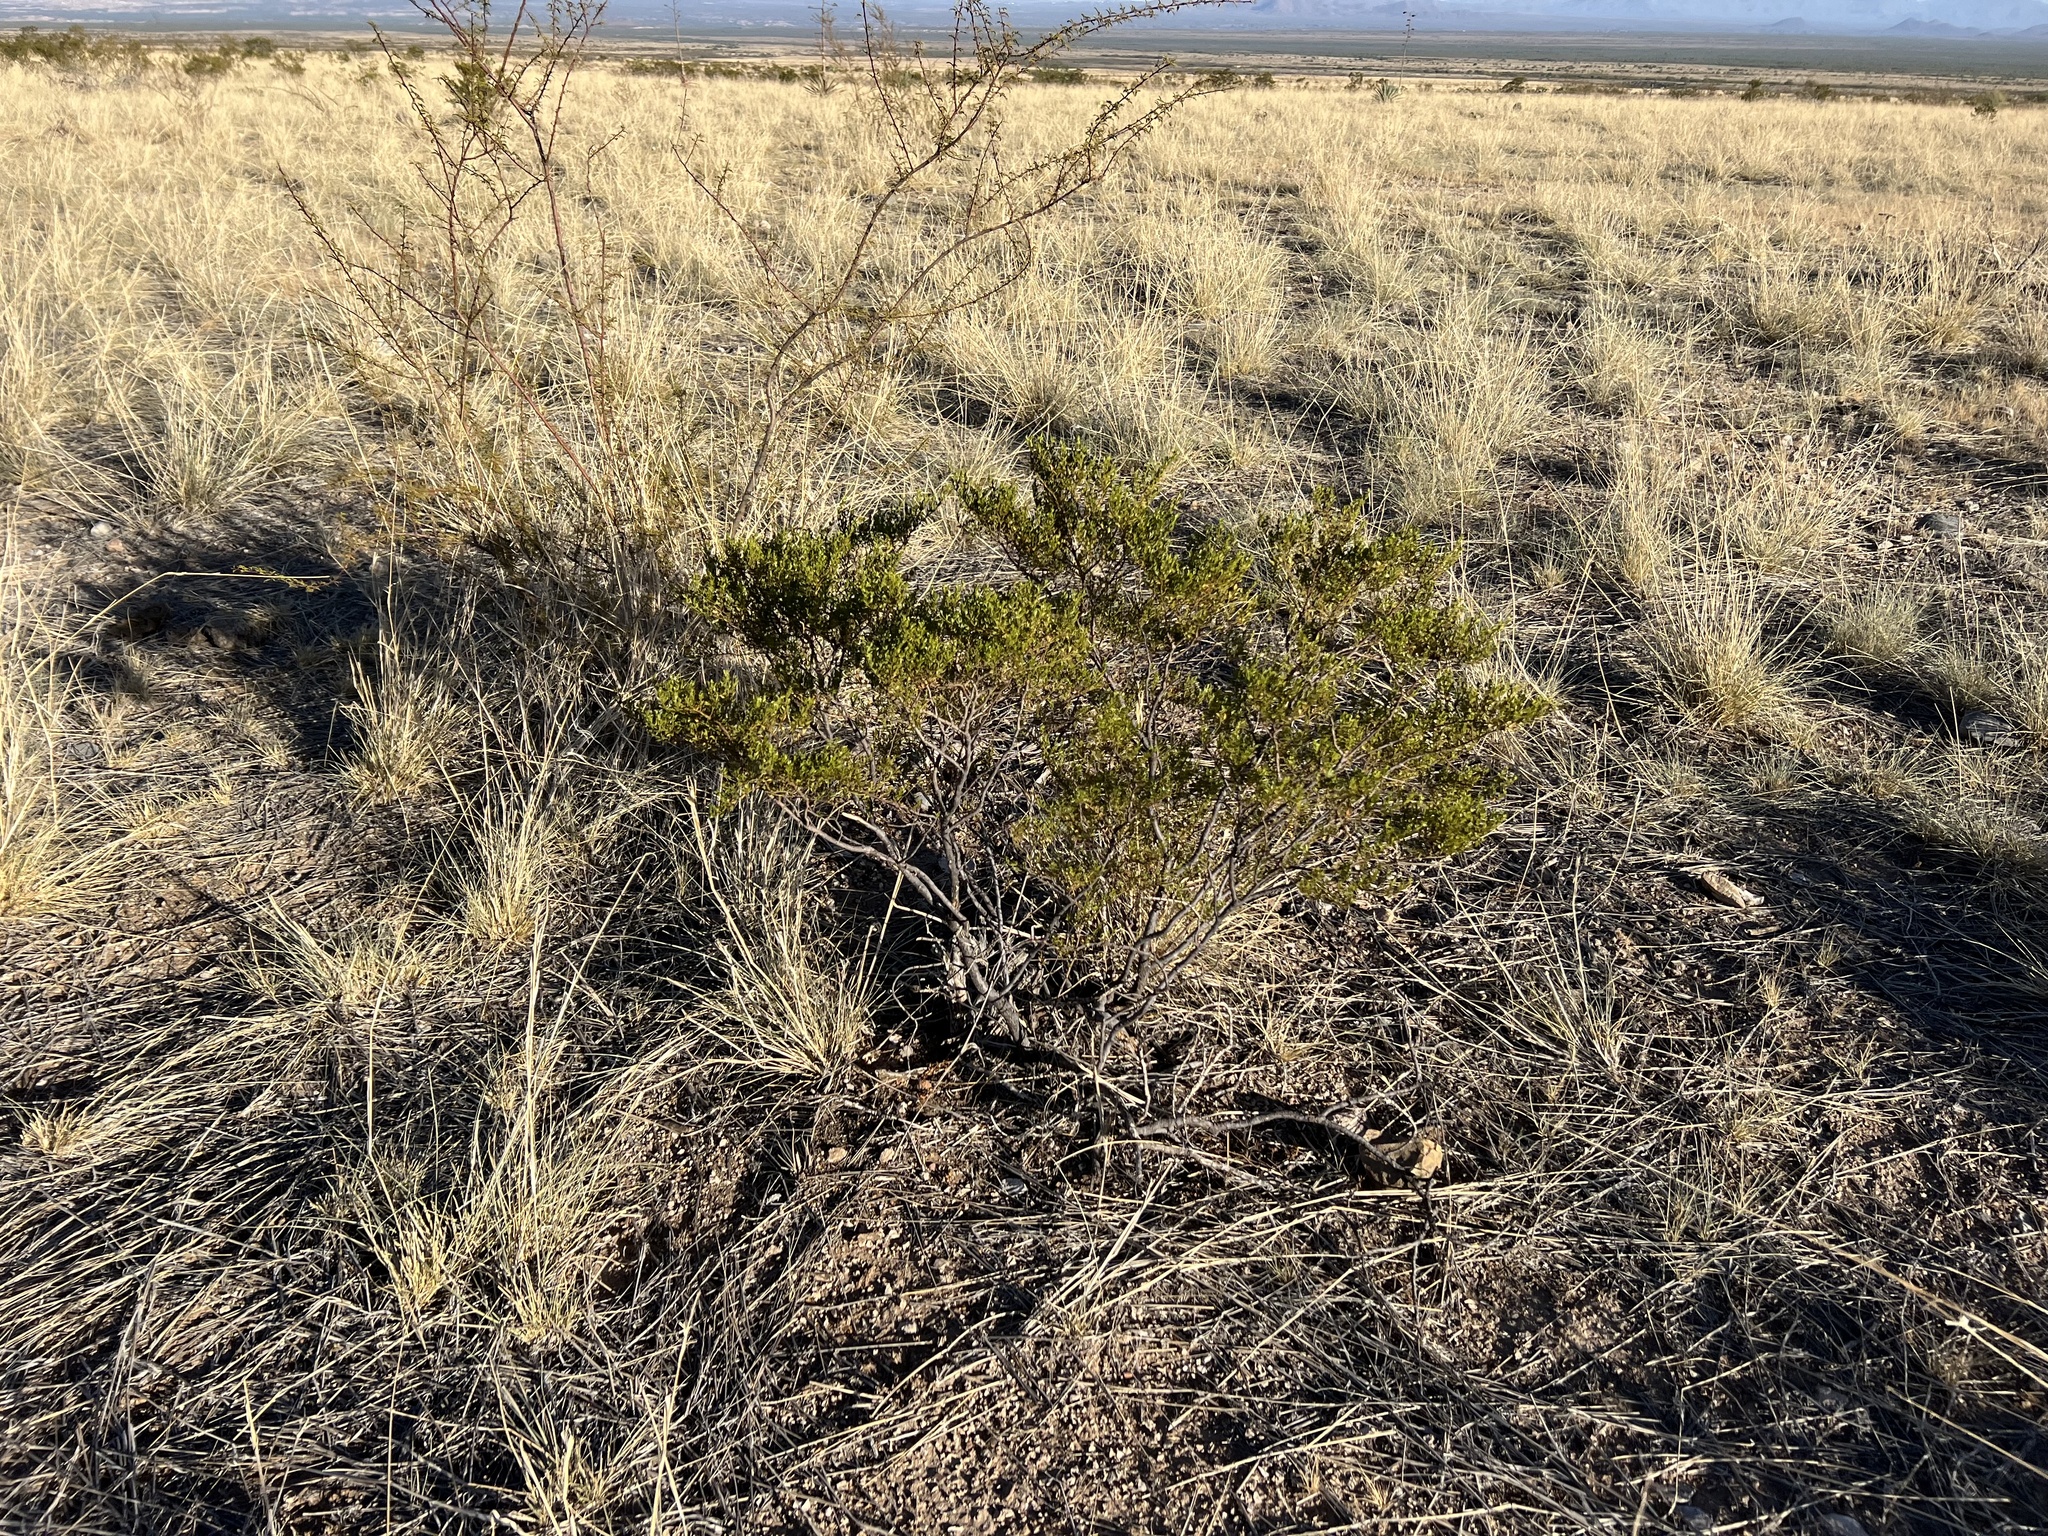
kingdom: Plantae
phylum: Tracheophyta
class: Magnoliopsida
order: Zygophyllales
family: Zygophyllaceae
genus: Larrea
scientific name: Larrea tridentata
